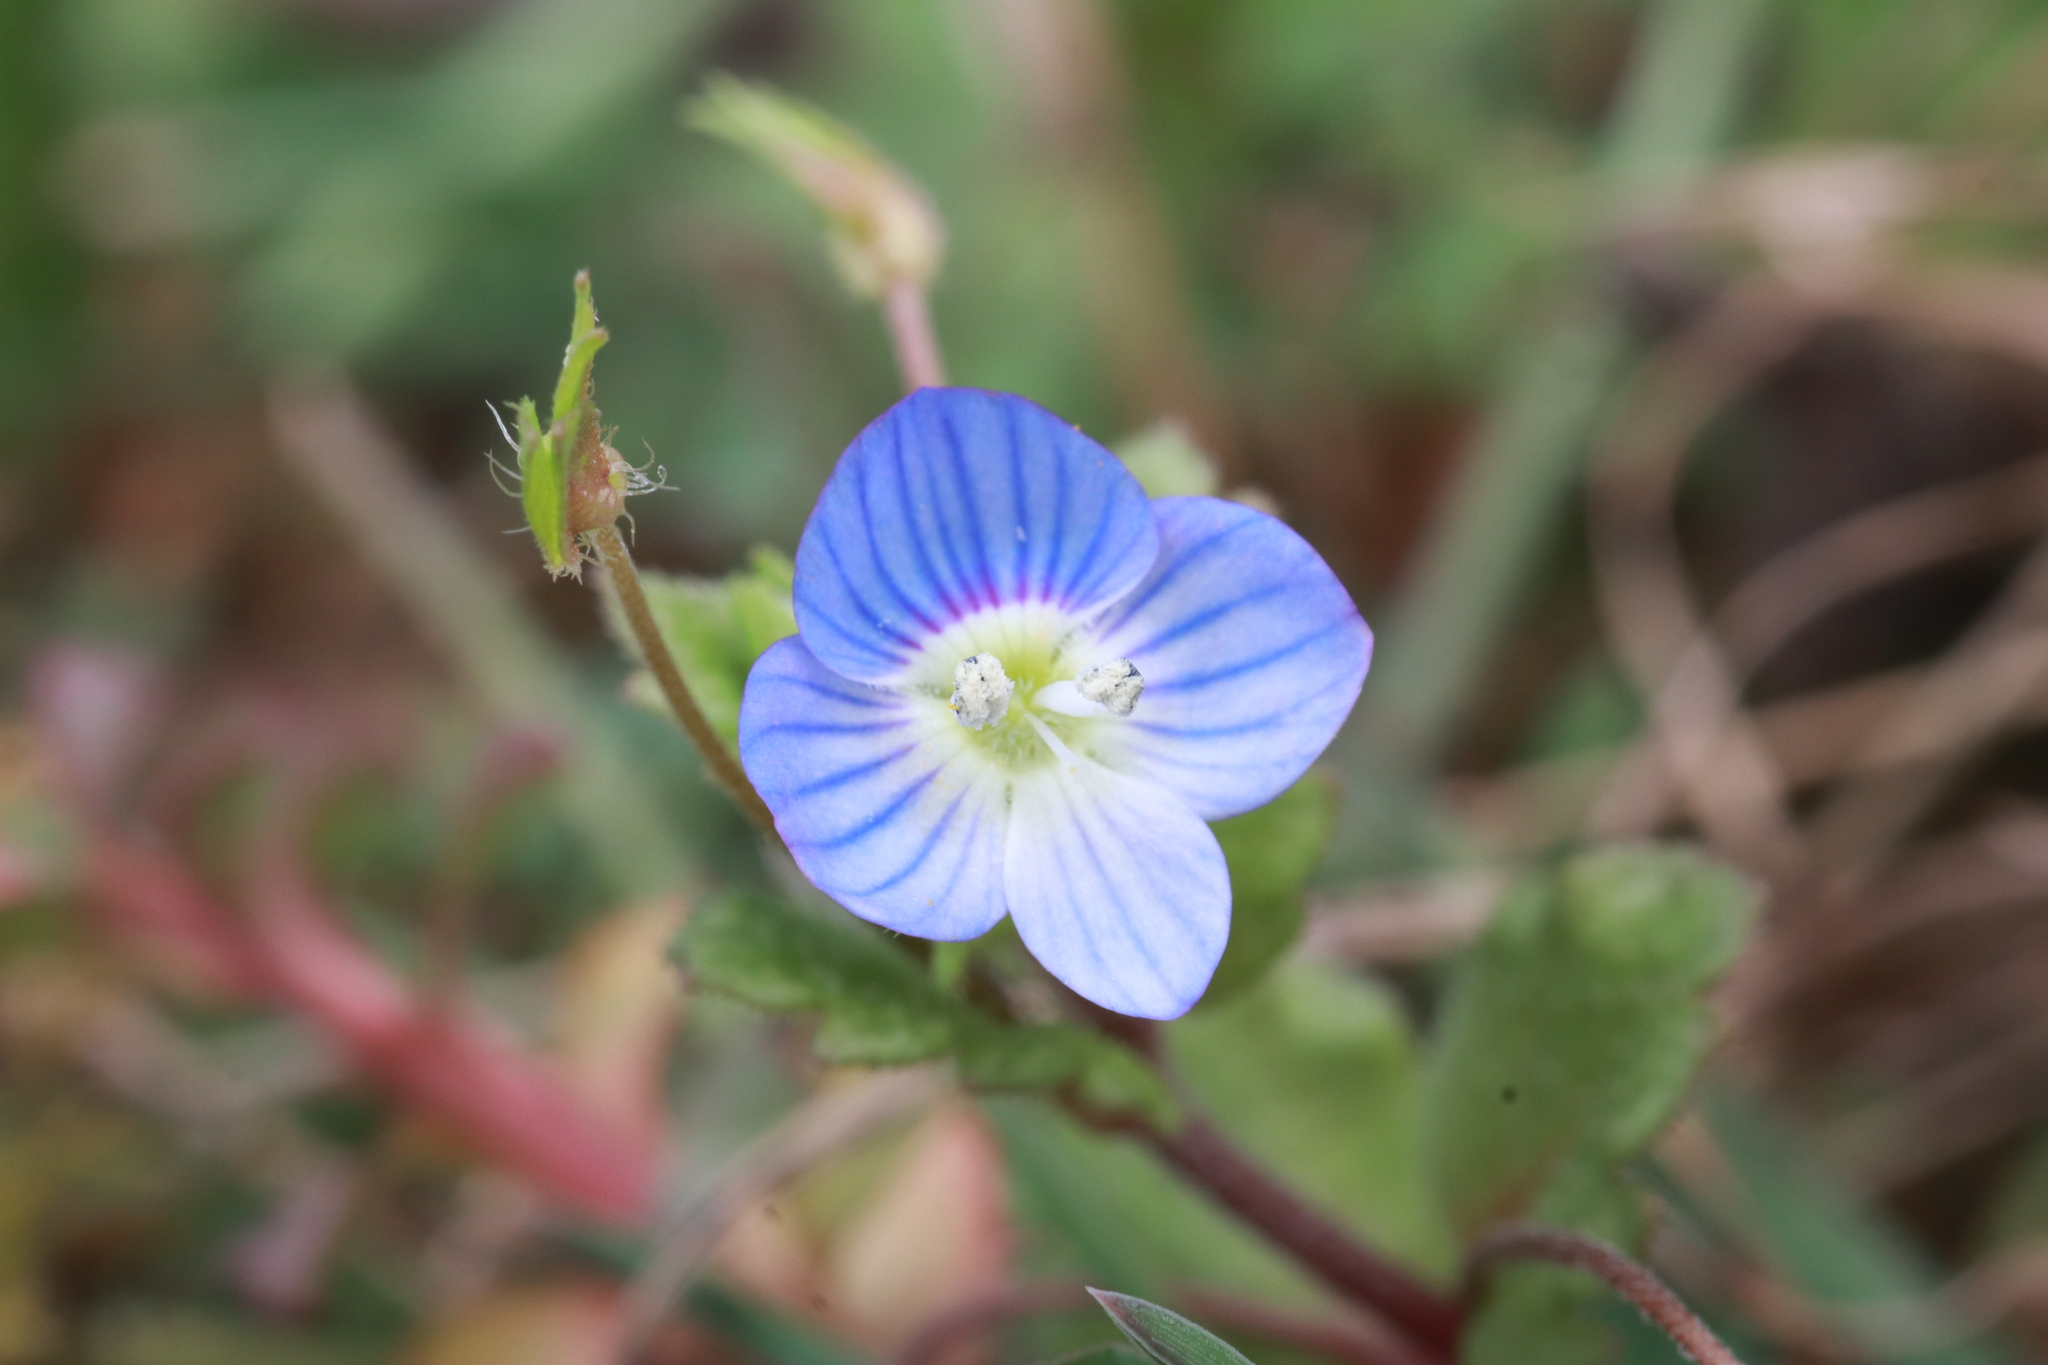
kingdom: Plantae
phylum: Tracheophyta
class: Magnoliopsida
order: Lamiales
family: Plantaginaceae
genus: Veronica
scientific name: Veronica persica
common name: Common field-speedwell
